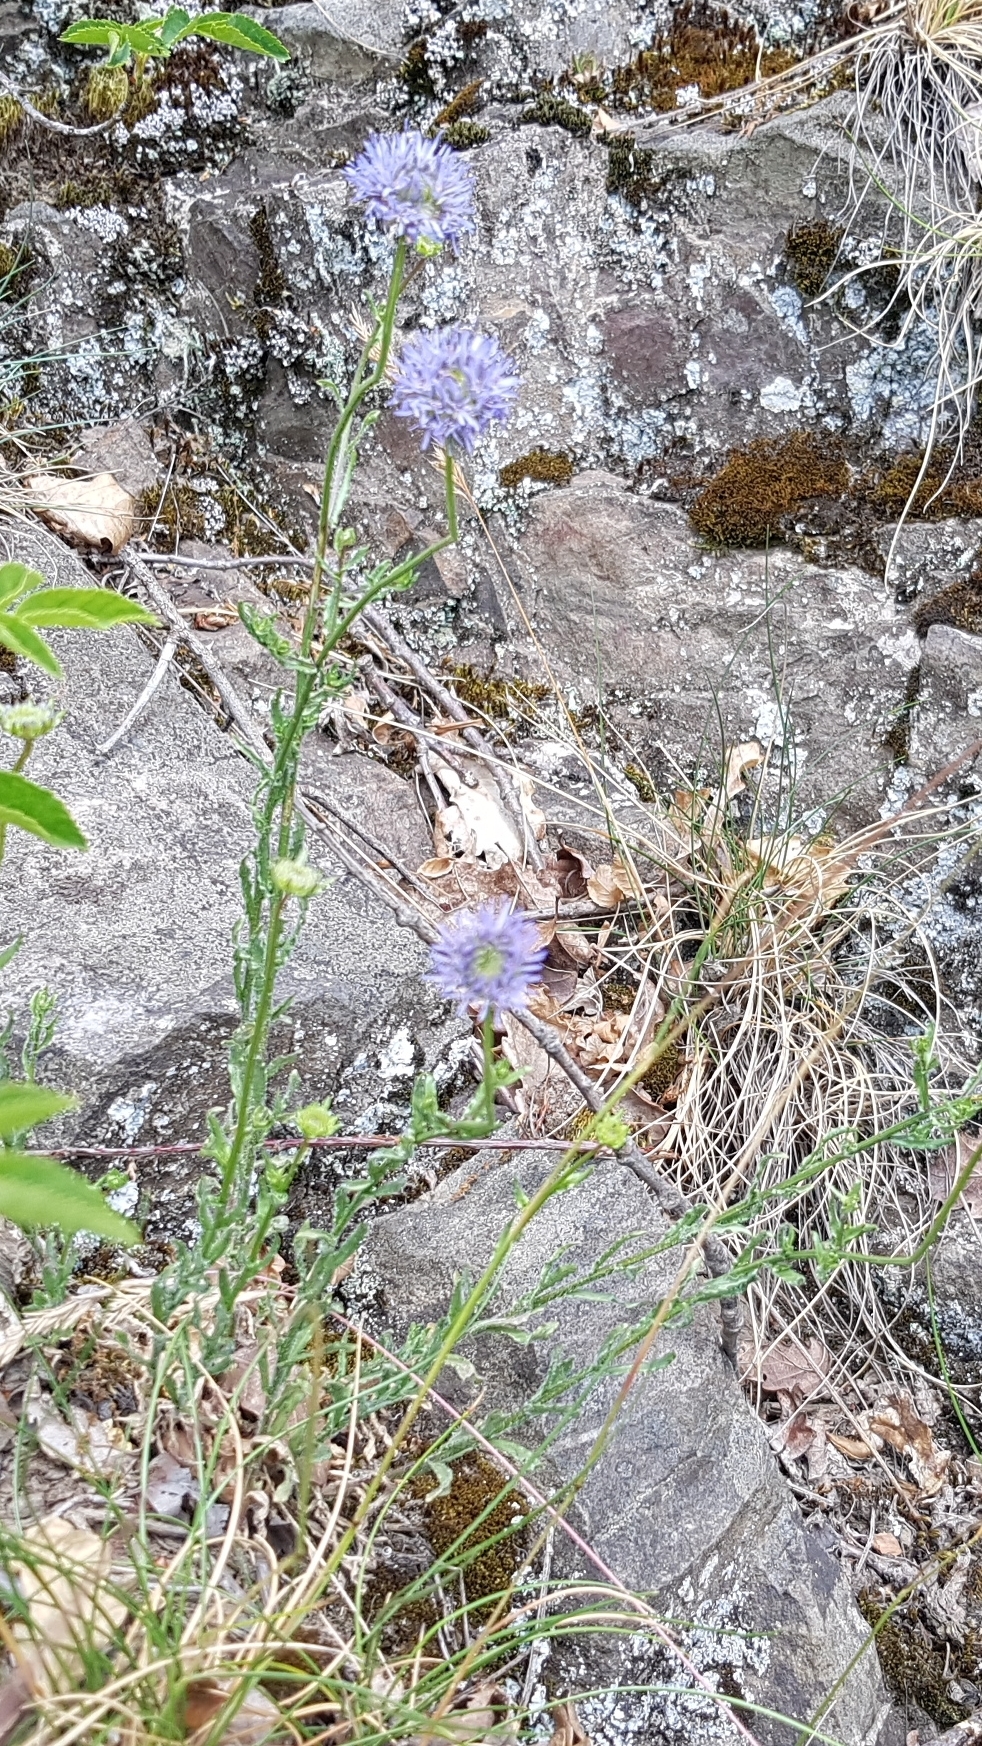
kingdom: Plantae
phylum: Tracheophyta
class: Magnoliopsida
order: Asterales
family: Campanulaceae
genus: Jasione
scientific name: Jasione montana
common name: Sheep's-bit
